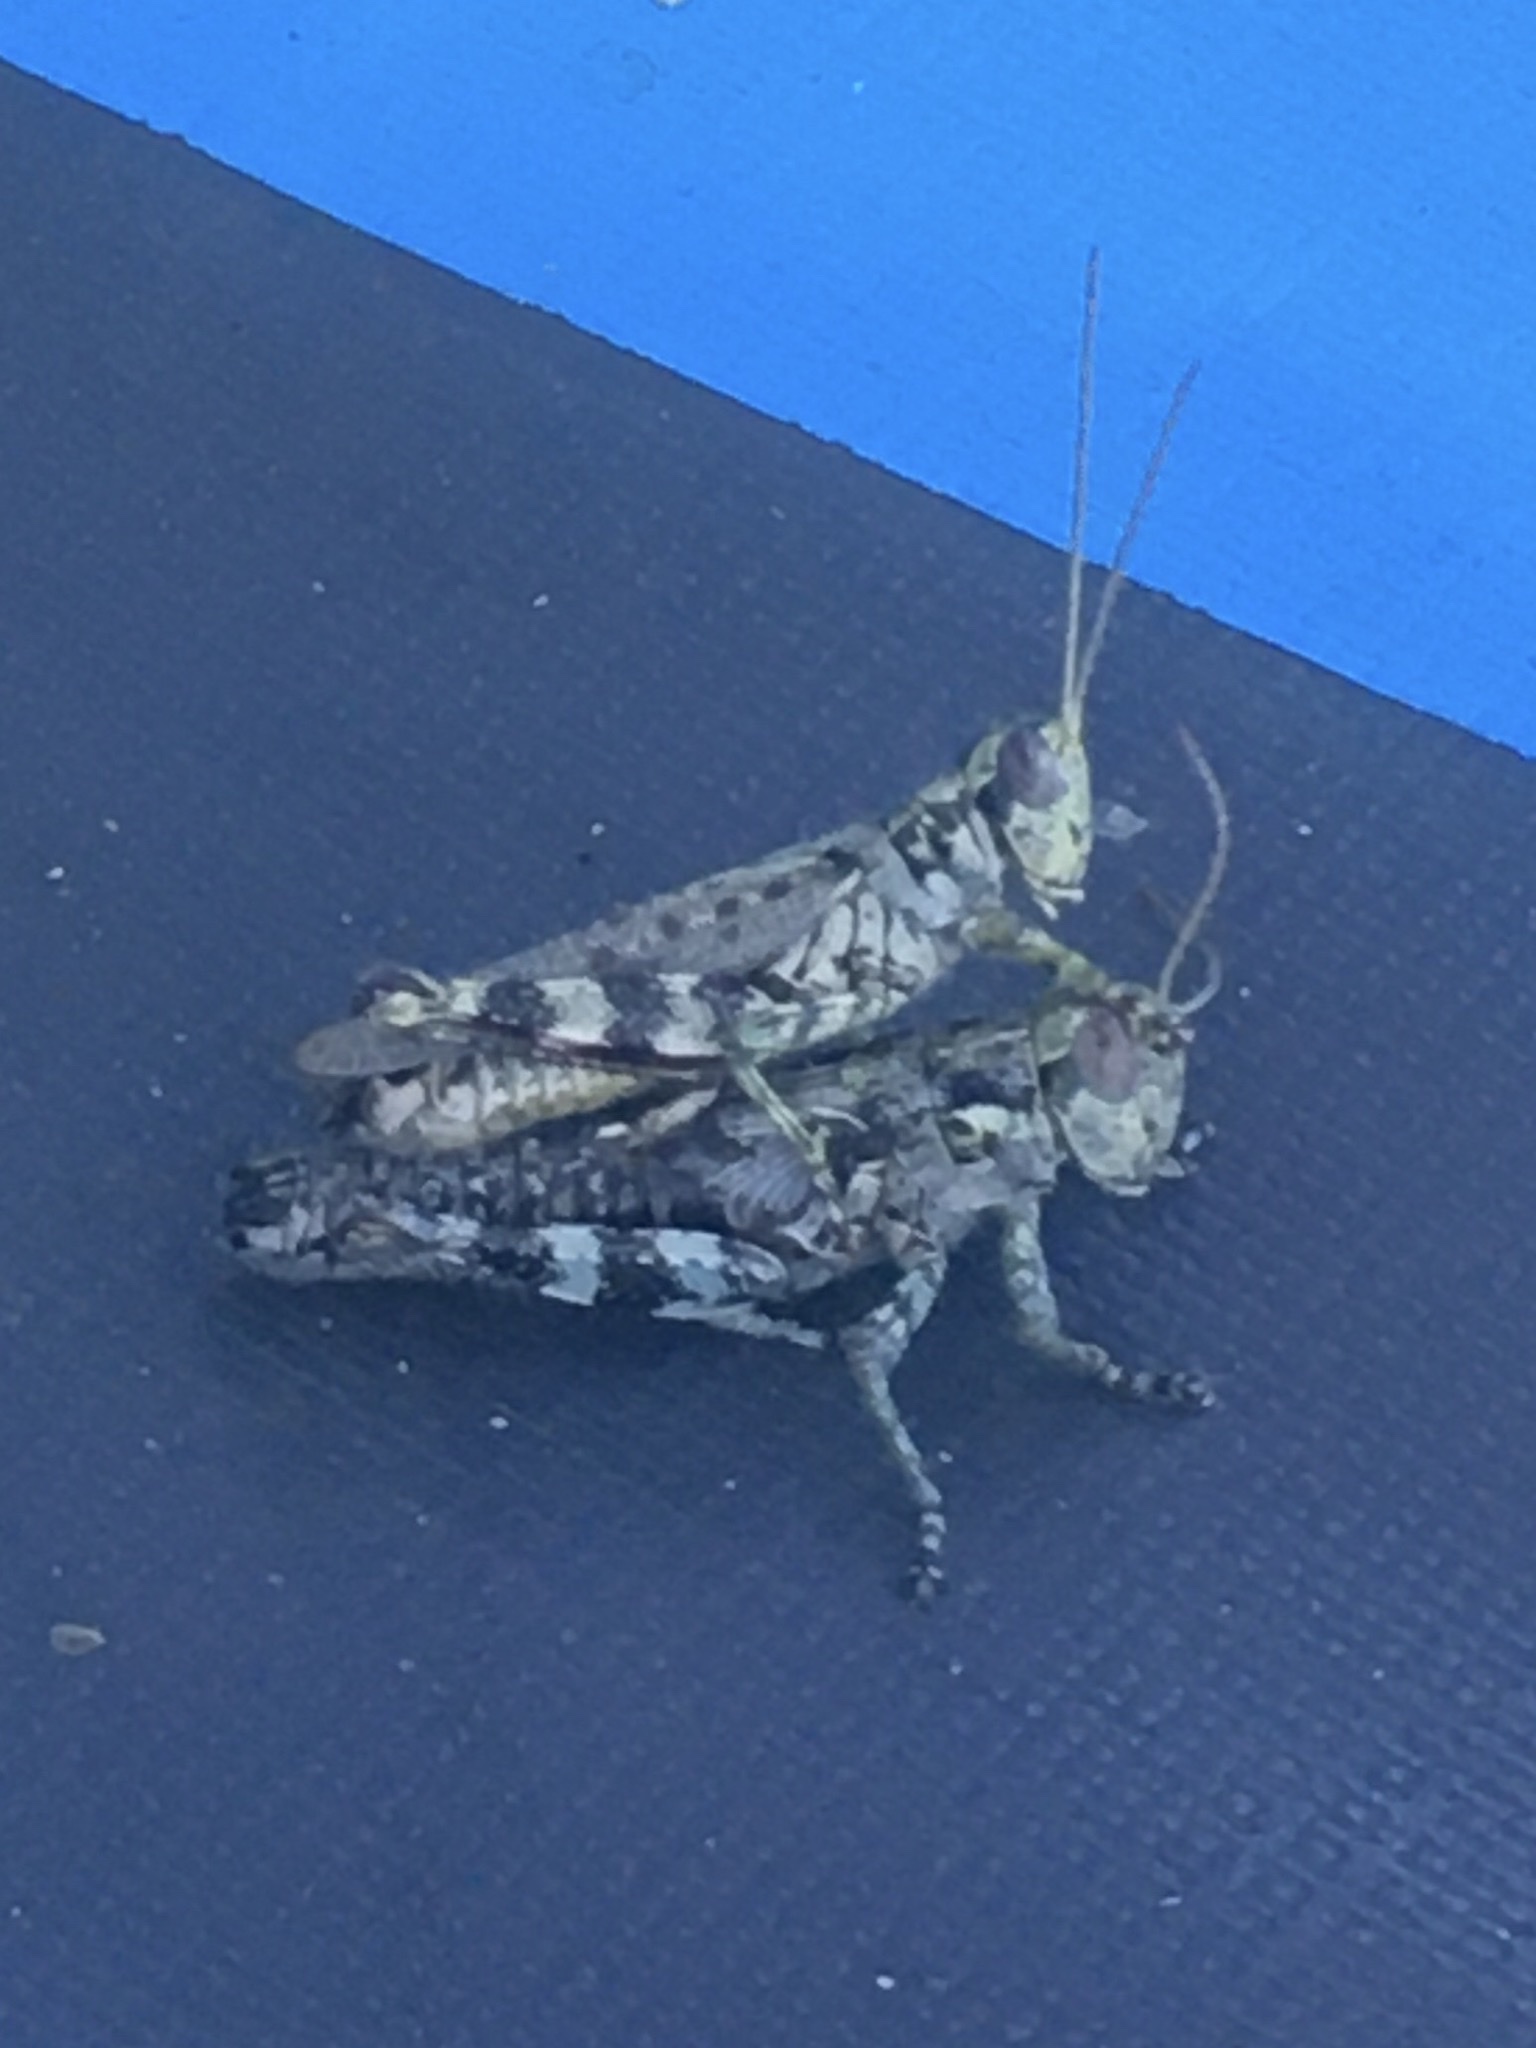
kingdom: Animalia
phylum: Arthropoda
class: Insecta
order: Orthoptera
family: Acrididae
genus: Melanoplus
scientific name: Melanoplus punctulatus
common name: Pine-tree spur-throat grasshopper
